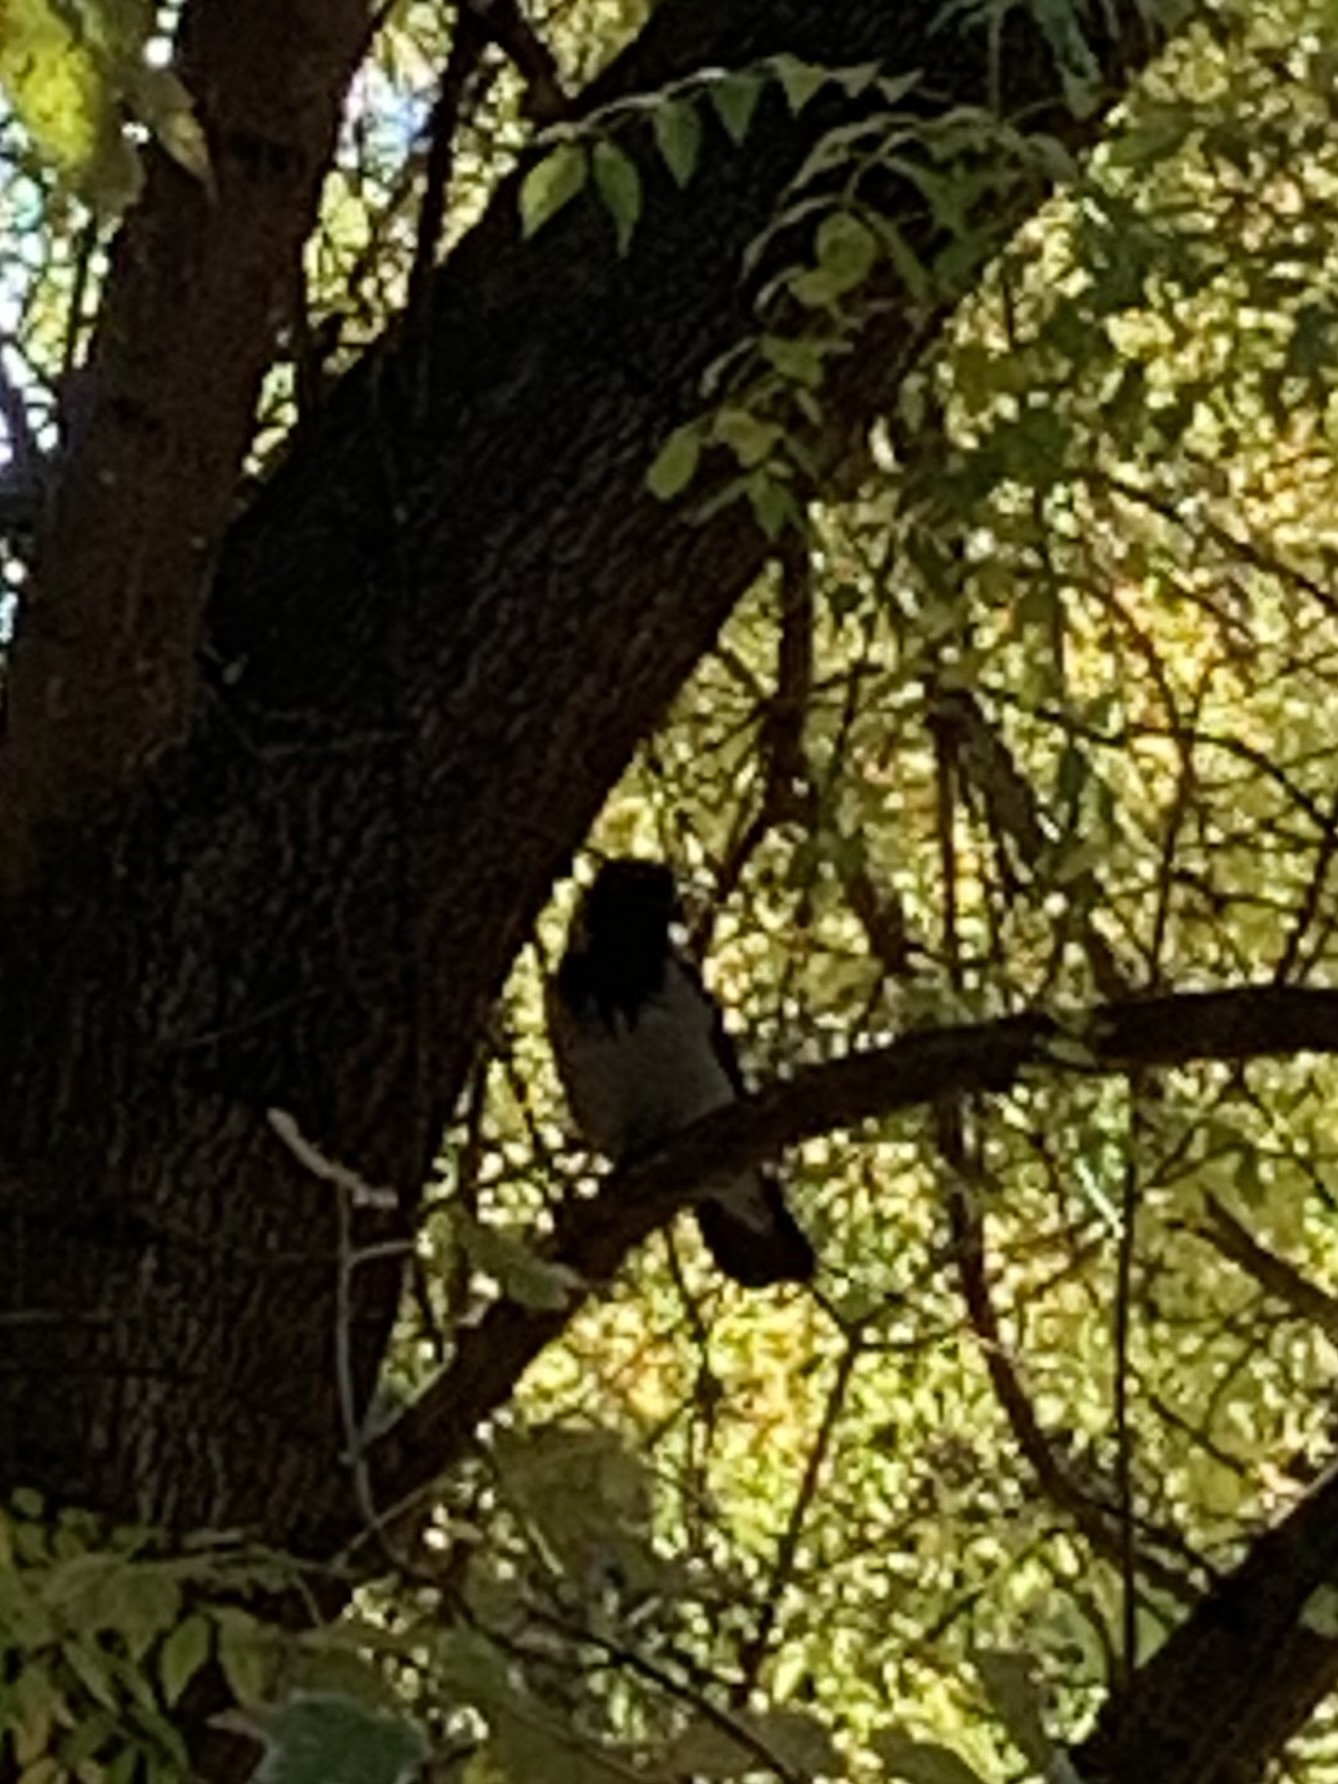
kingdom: Animalia
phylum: Chordata
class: Aves
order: Passeriformes
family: Corvidae
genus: Corvus
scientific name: Corvus cornix
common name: Hooded crow
